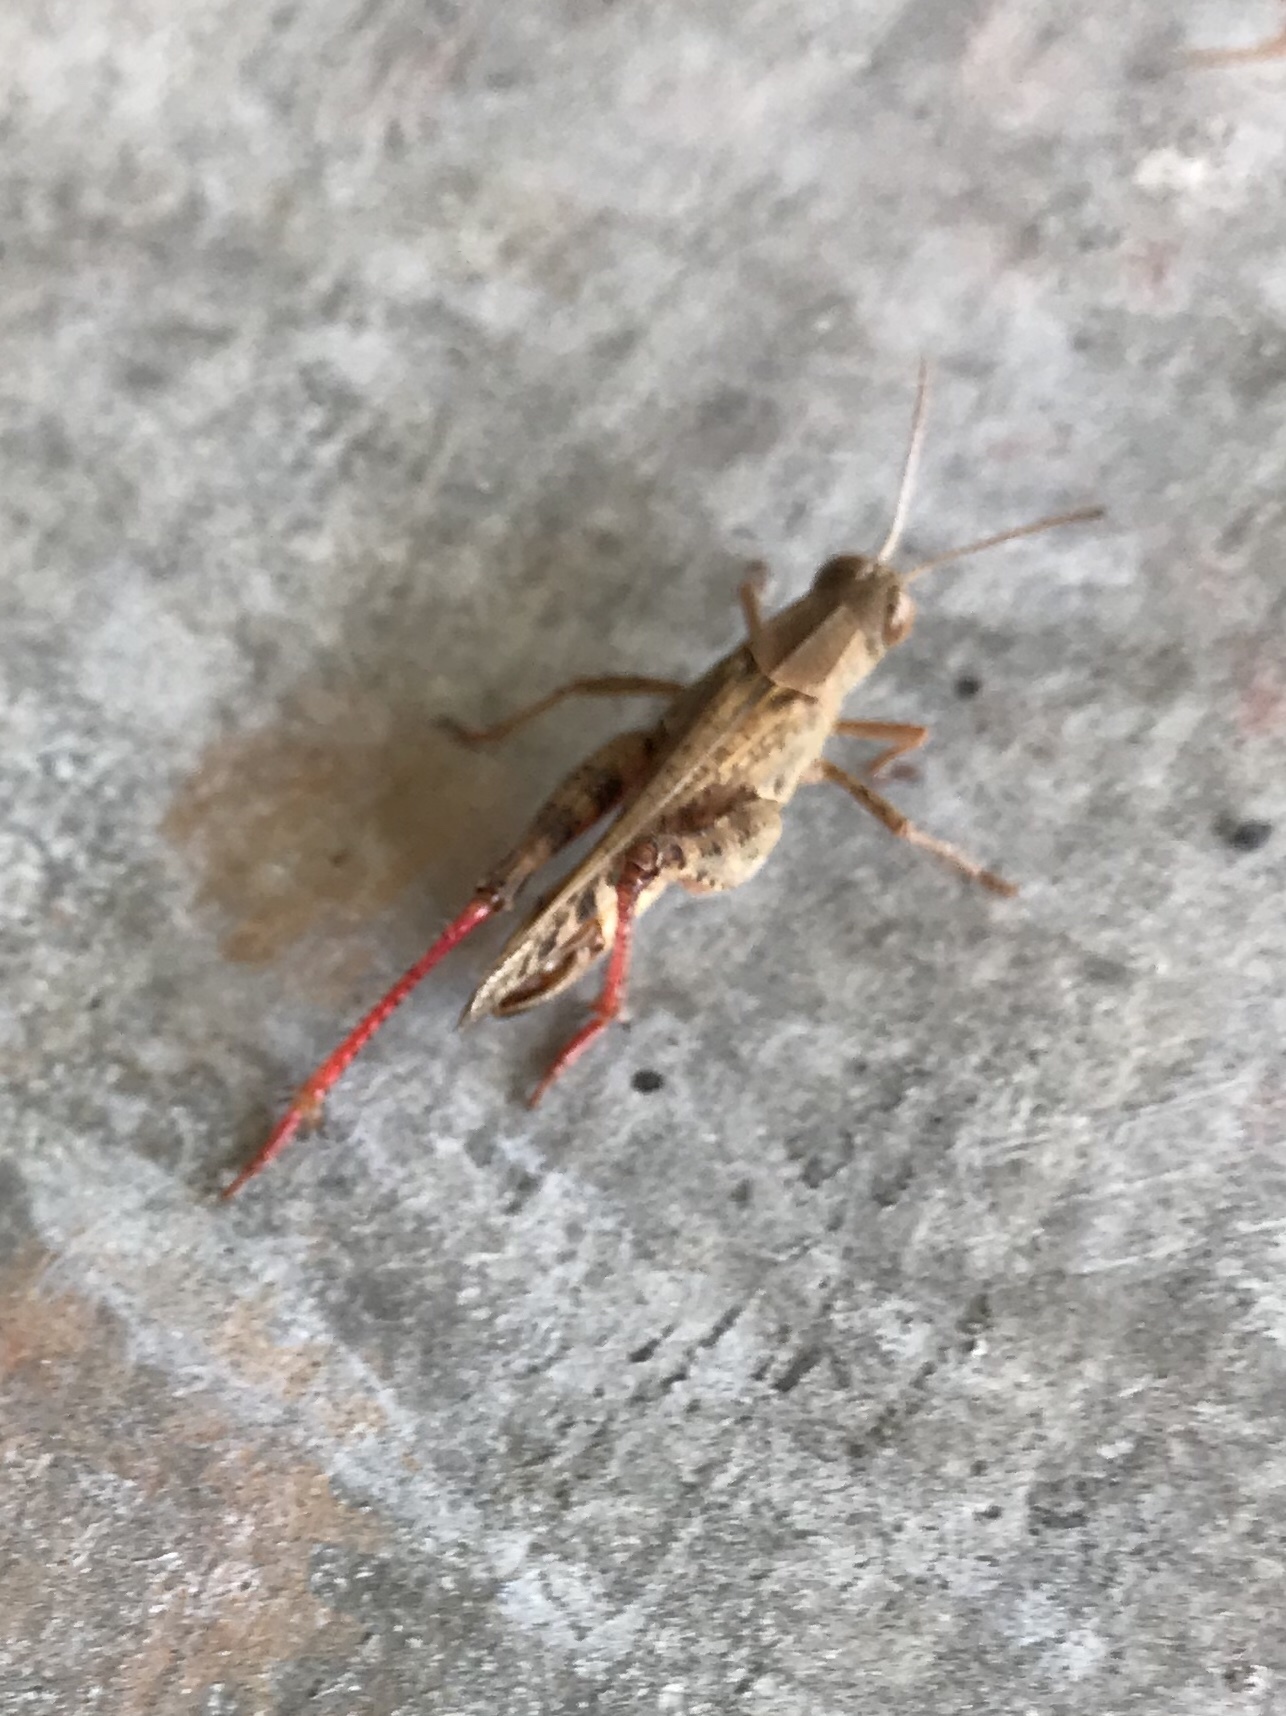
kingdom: Animalia
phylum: Arthropoda
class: Insecta
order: Orthoptera
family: Acrididae
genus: Calliptamus
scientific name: Calliptamus italicus
